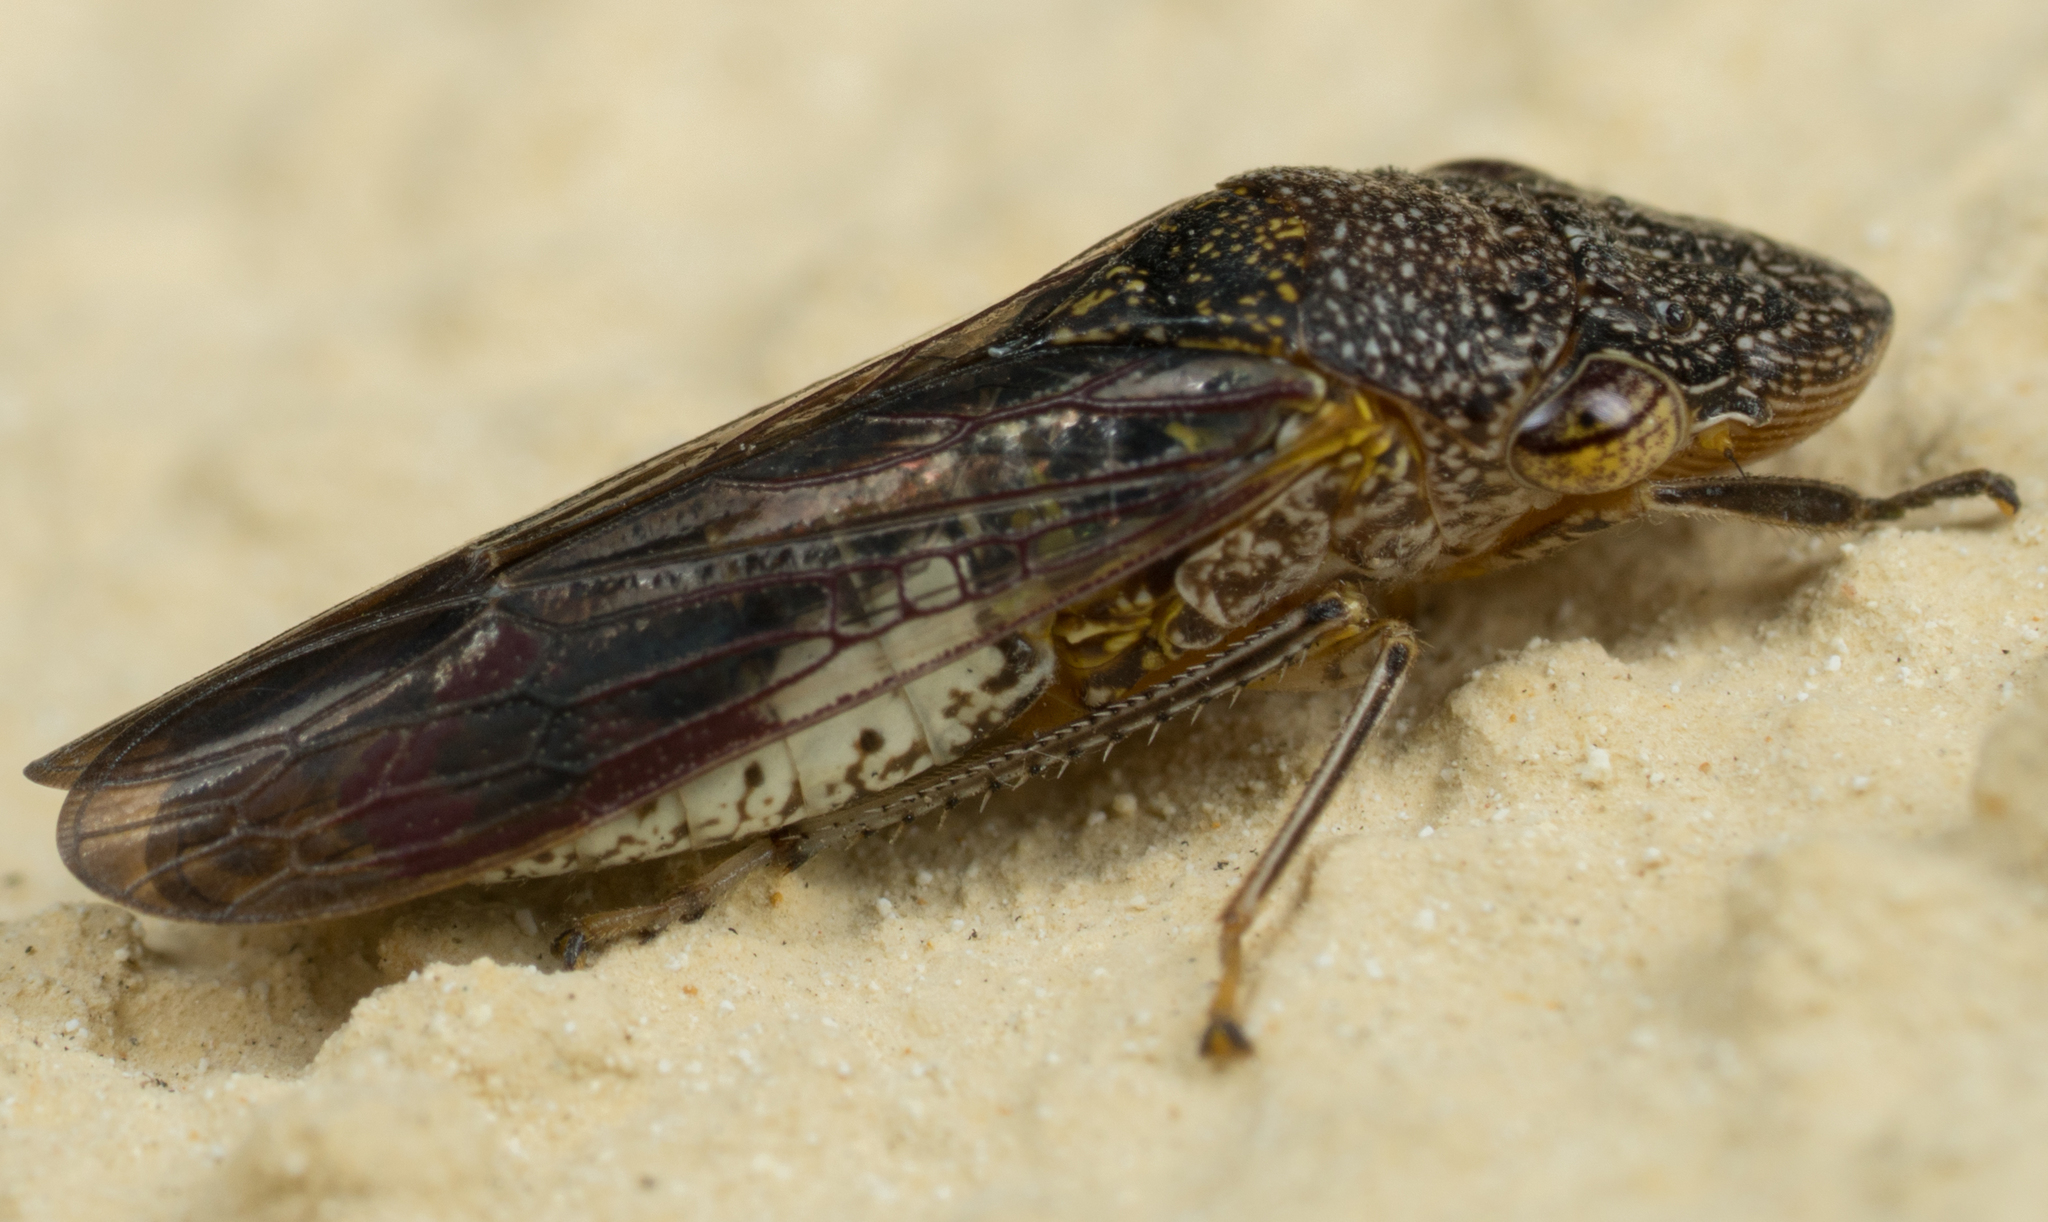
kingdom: Animalia
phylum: Arthropoda
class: Insecta
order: Hemiptera
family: Cicadellidae
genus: Homalodisca
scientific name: Homalodisca vitripennis
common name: Glassy-winged sharpshooter
